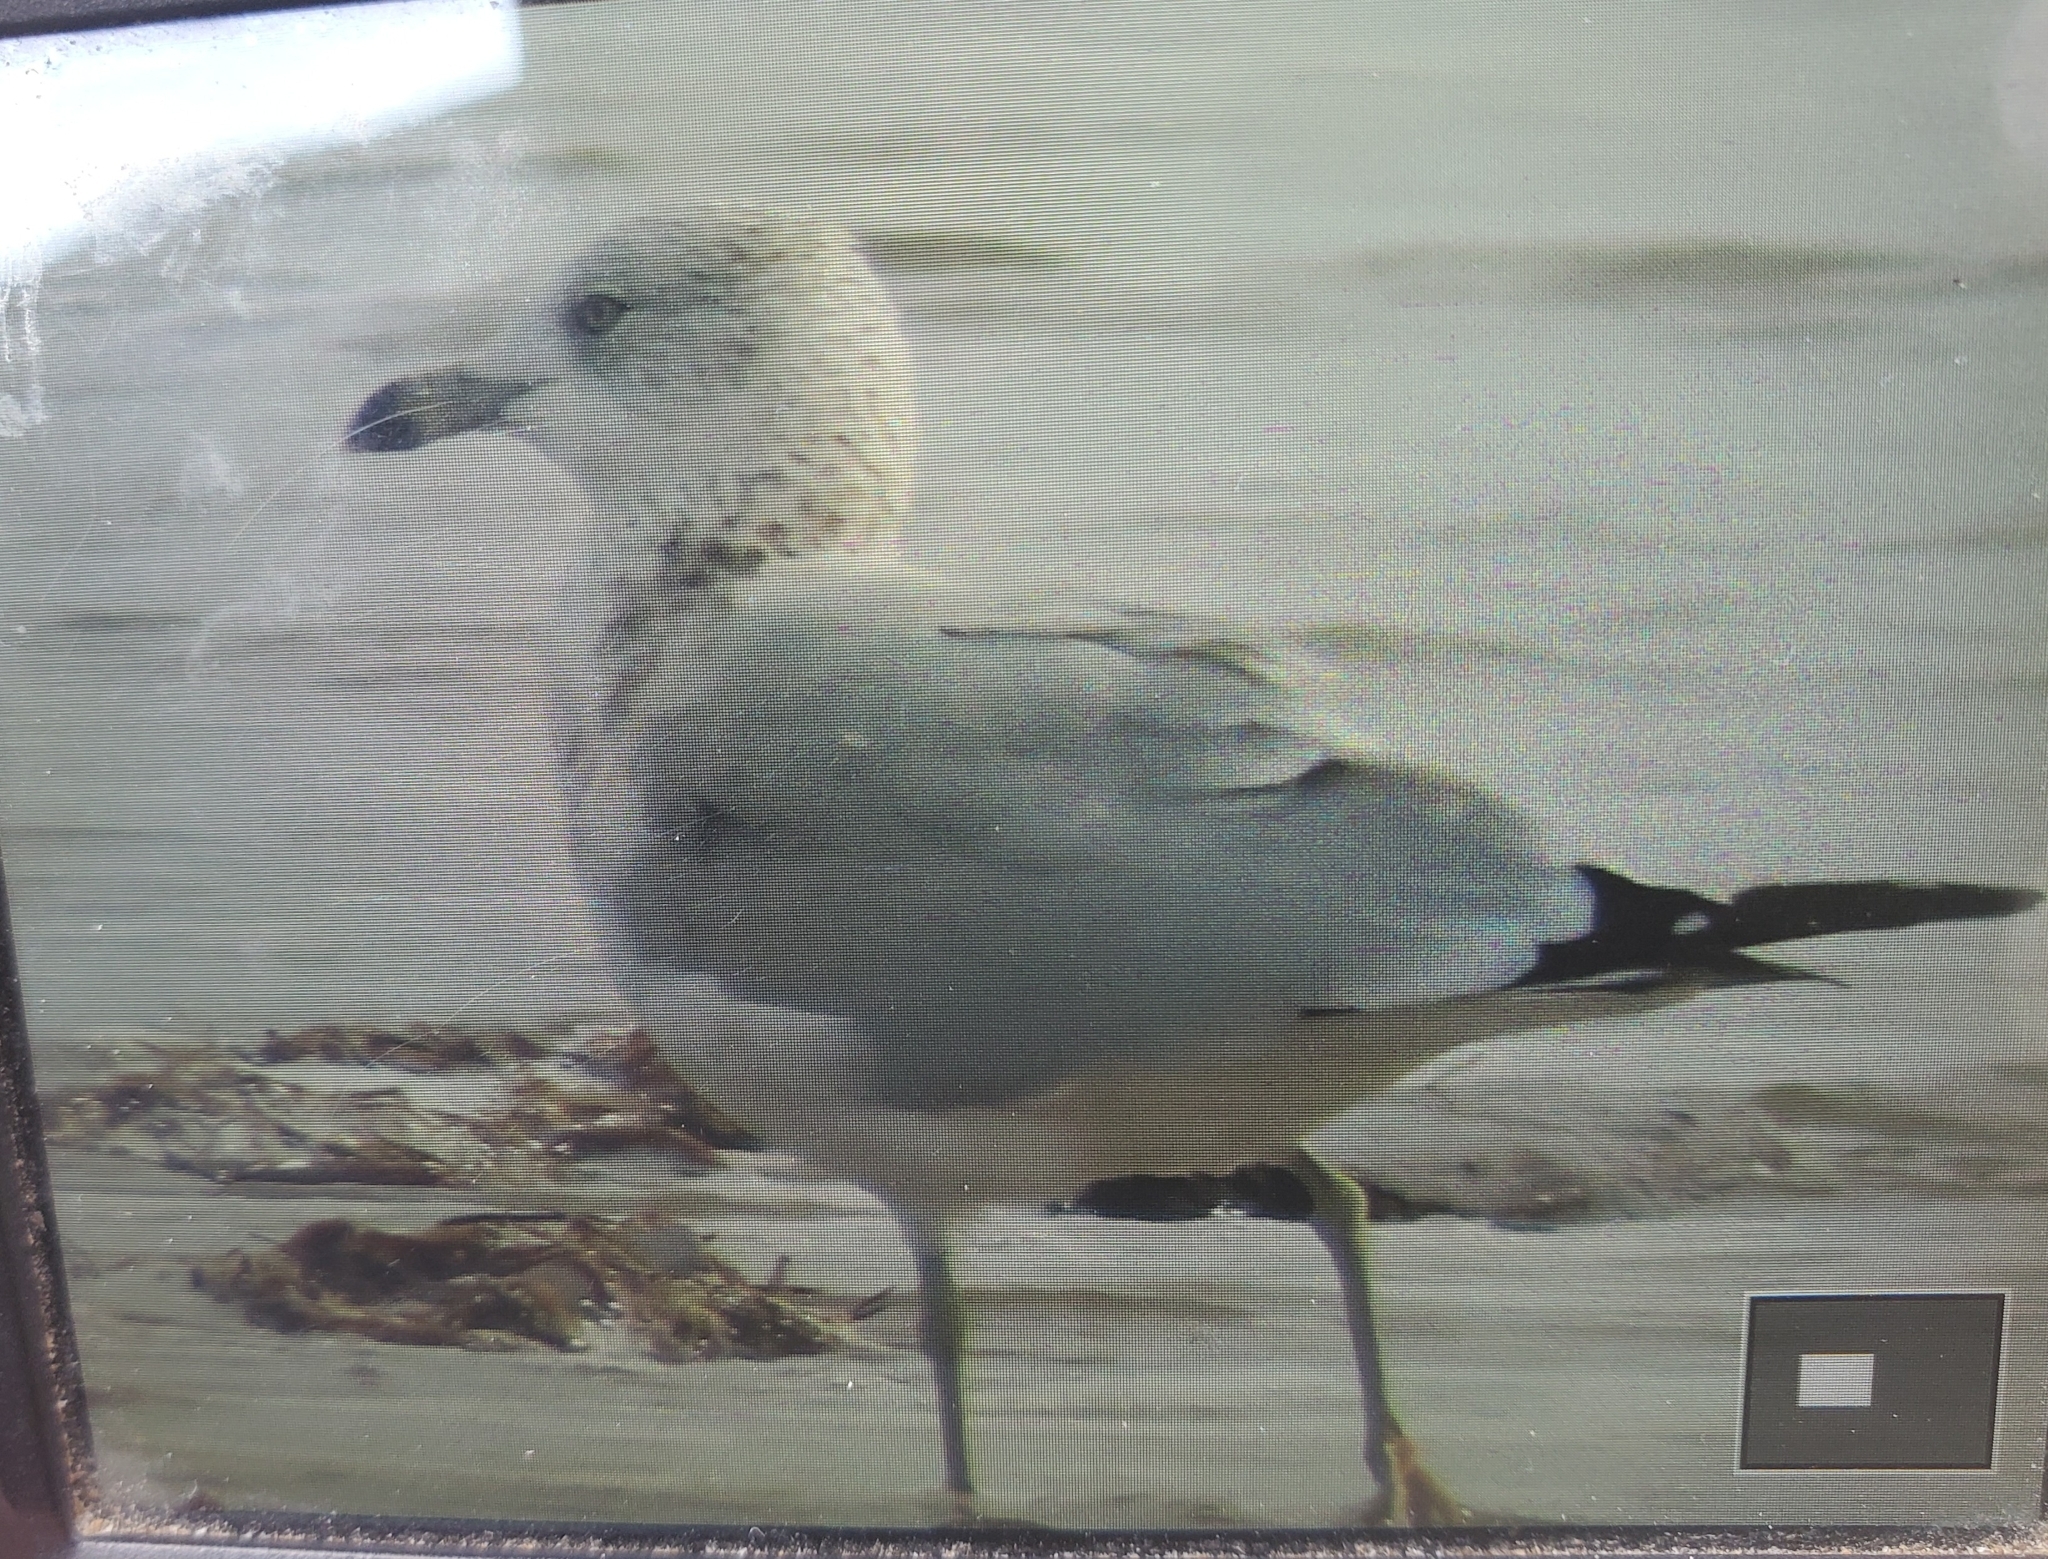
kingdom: Animalia
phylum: Chordata
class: Aves
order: Charadriiformes
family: Laridae
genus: Larus
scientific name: Larus delawarensis
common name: Ring-billed gull
